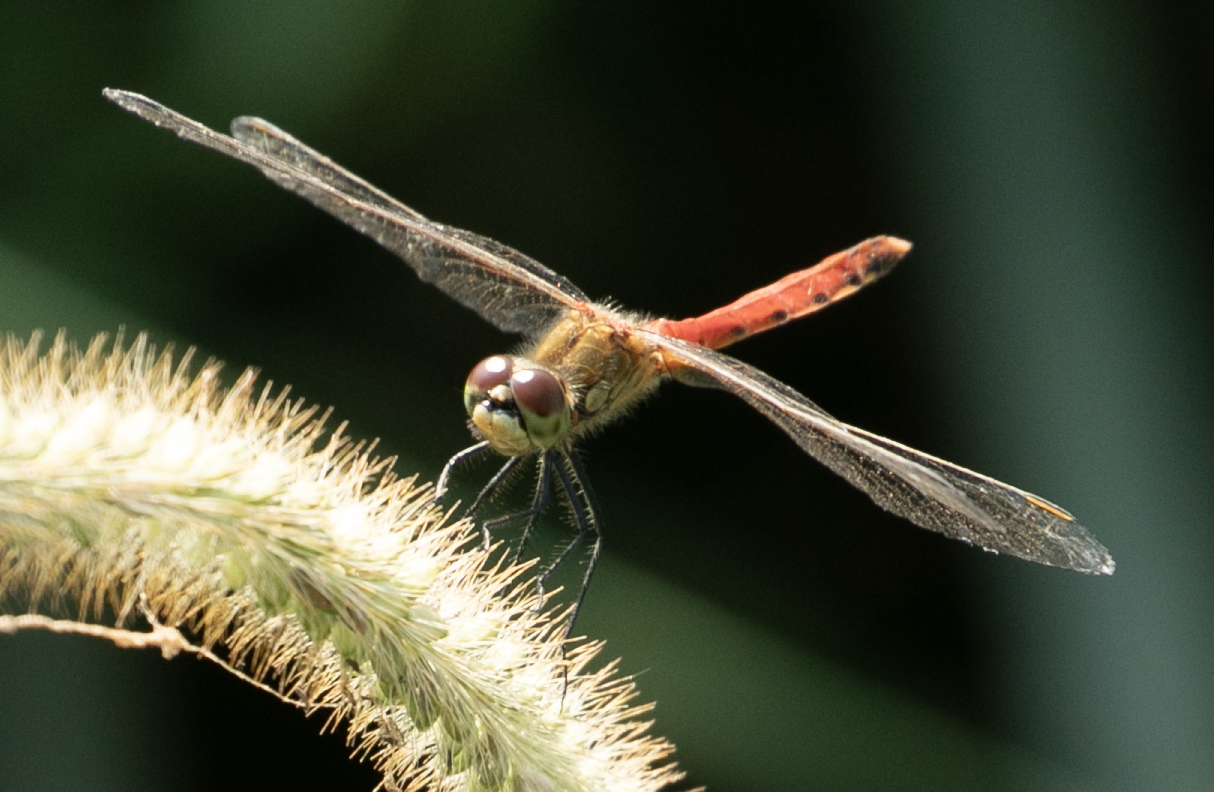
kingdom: Animalia
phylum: Arthropoda
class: Insecta
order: Odonata
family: Libellulidae
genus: Sympetrum
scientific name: Sympetrum depressiusculum
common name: Spotted darter
